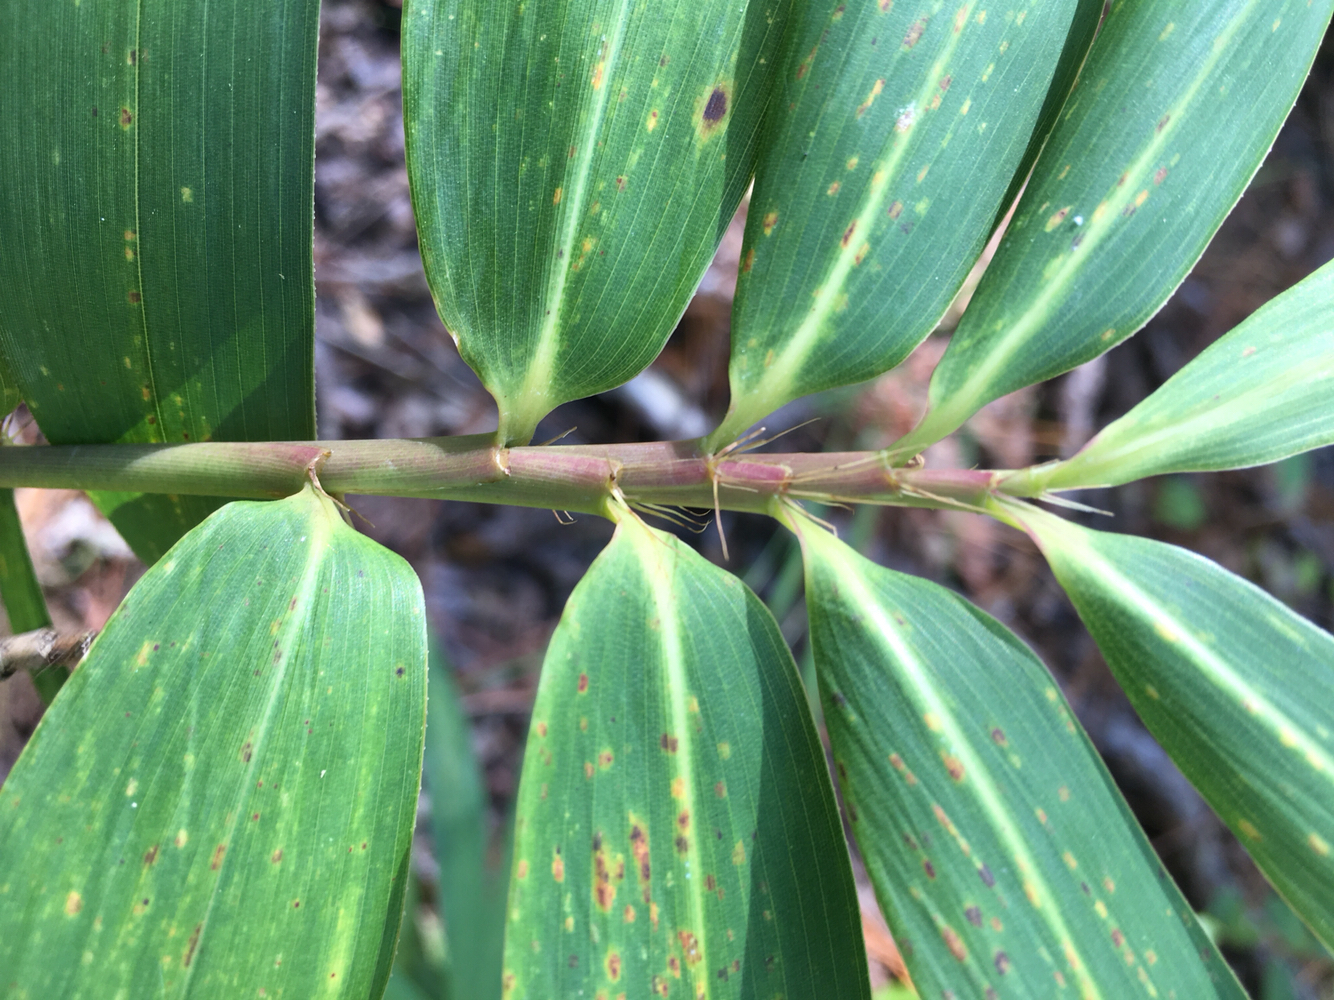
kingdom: Plantae
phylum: Tracheophyta
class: Liliopsida
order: Poales
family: Poaceae
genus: Arundinaria
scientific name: Arundinaria tecta
